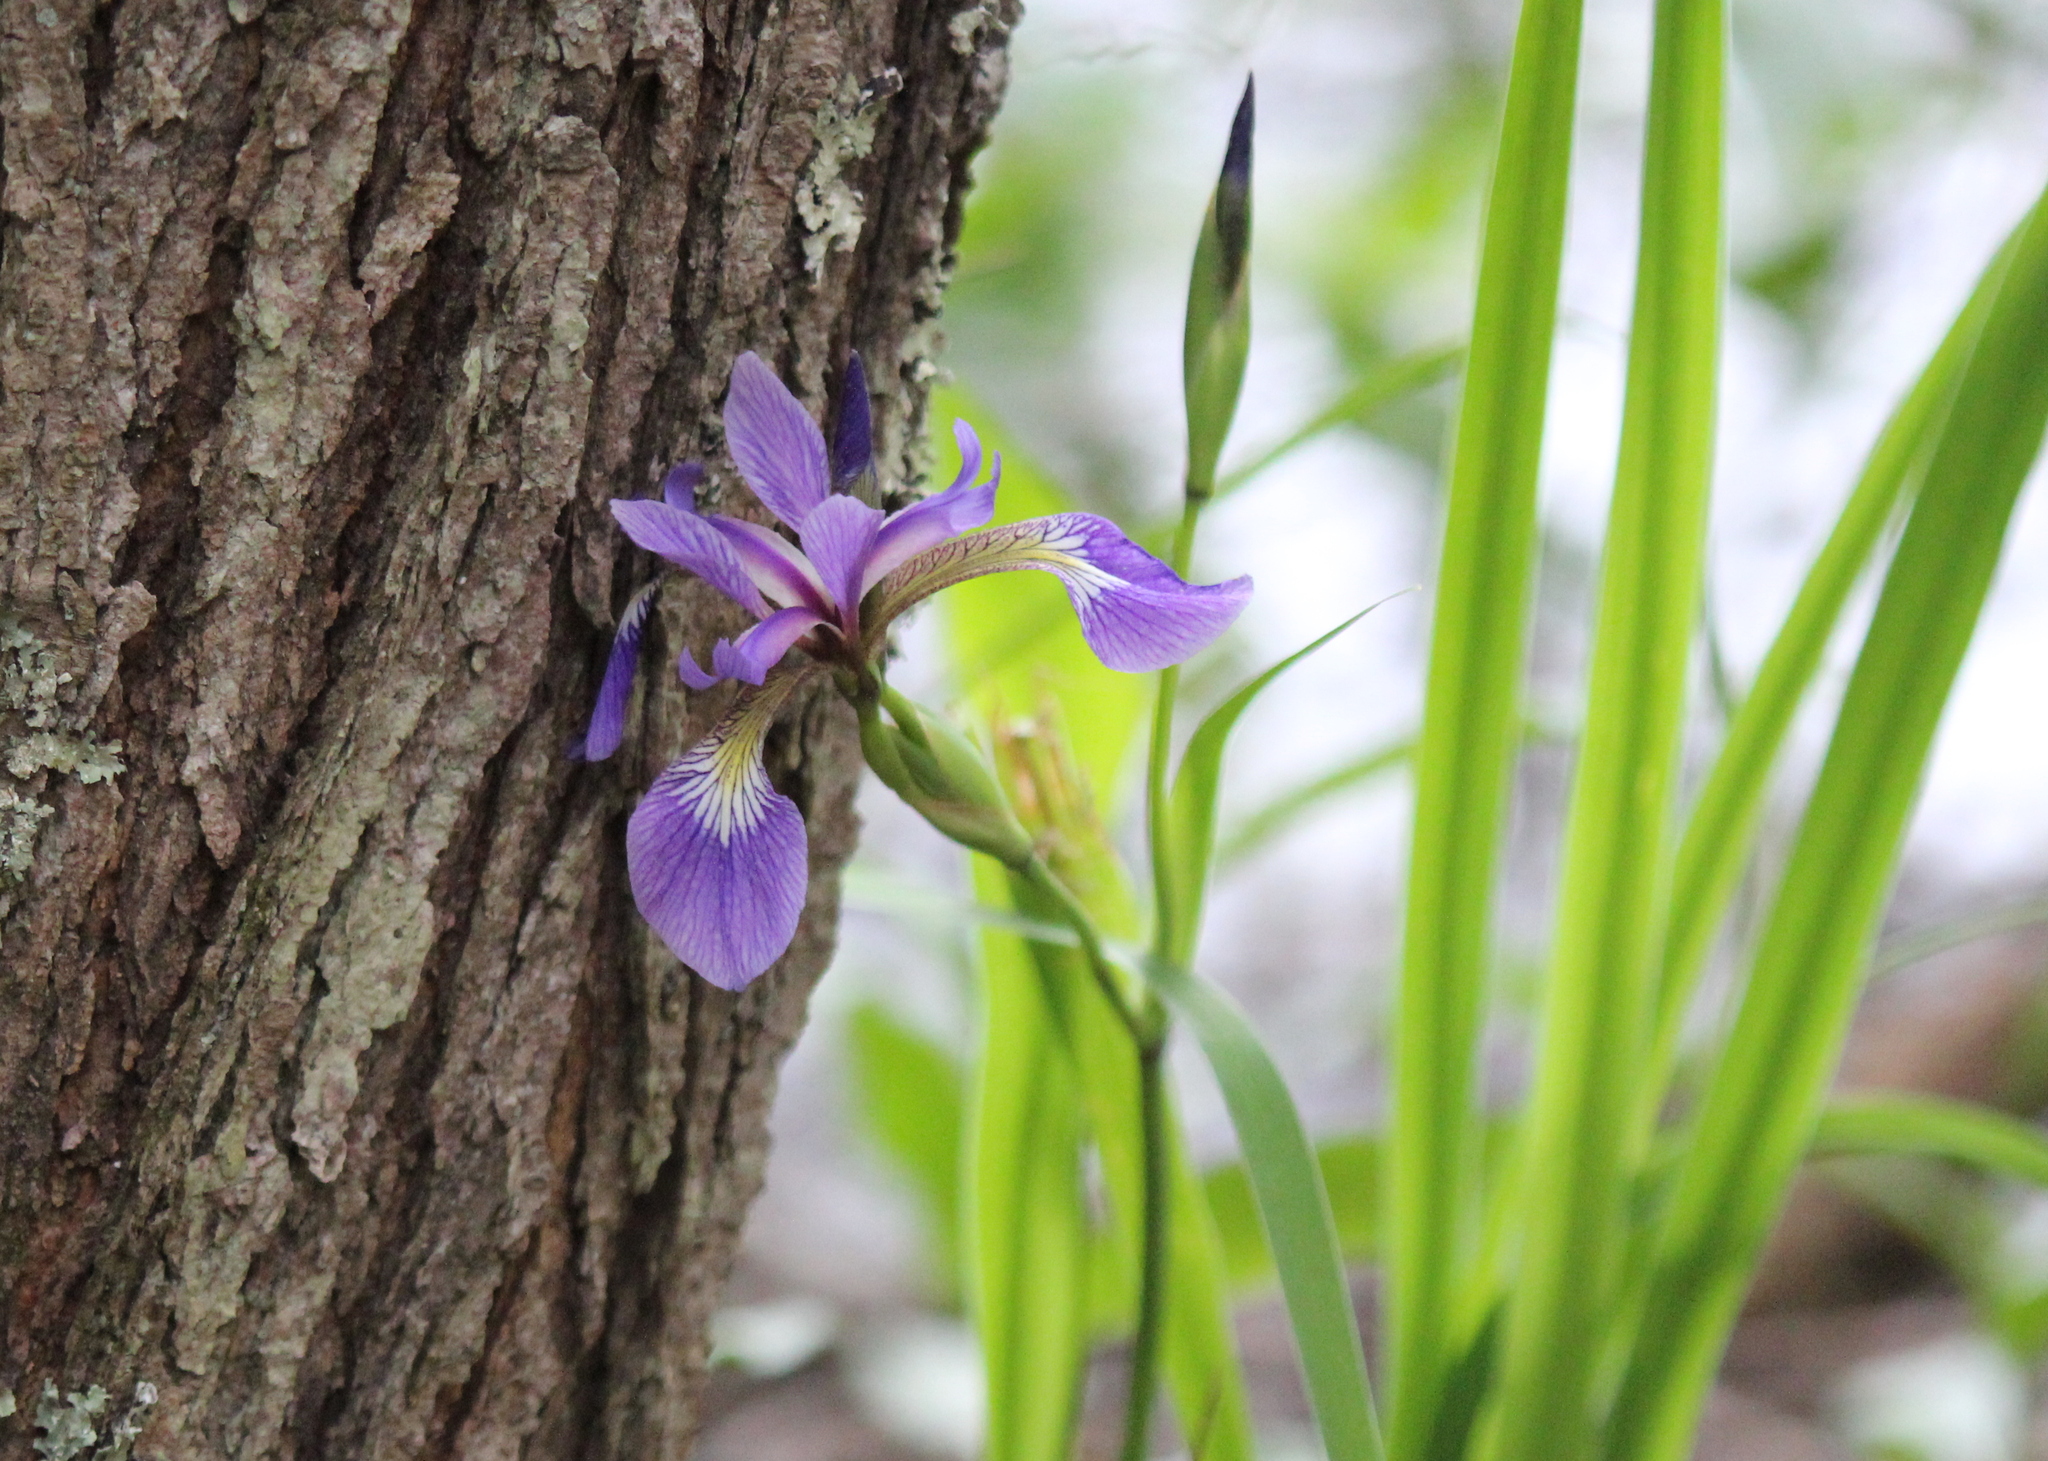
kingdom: Plantae
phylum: Tracheophyta
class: Liliopsida
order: Asparagales
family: Iridaceae
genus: Iris
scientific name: Iris versicolor
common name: Purple iris
